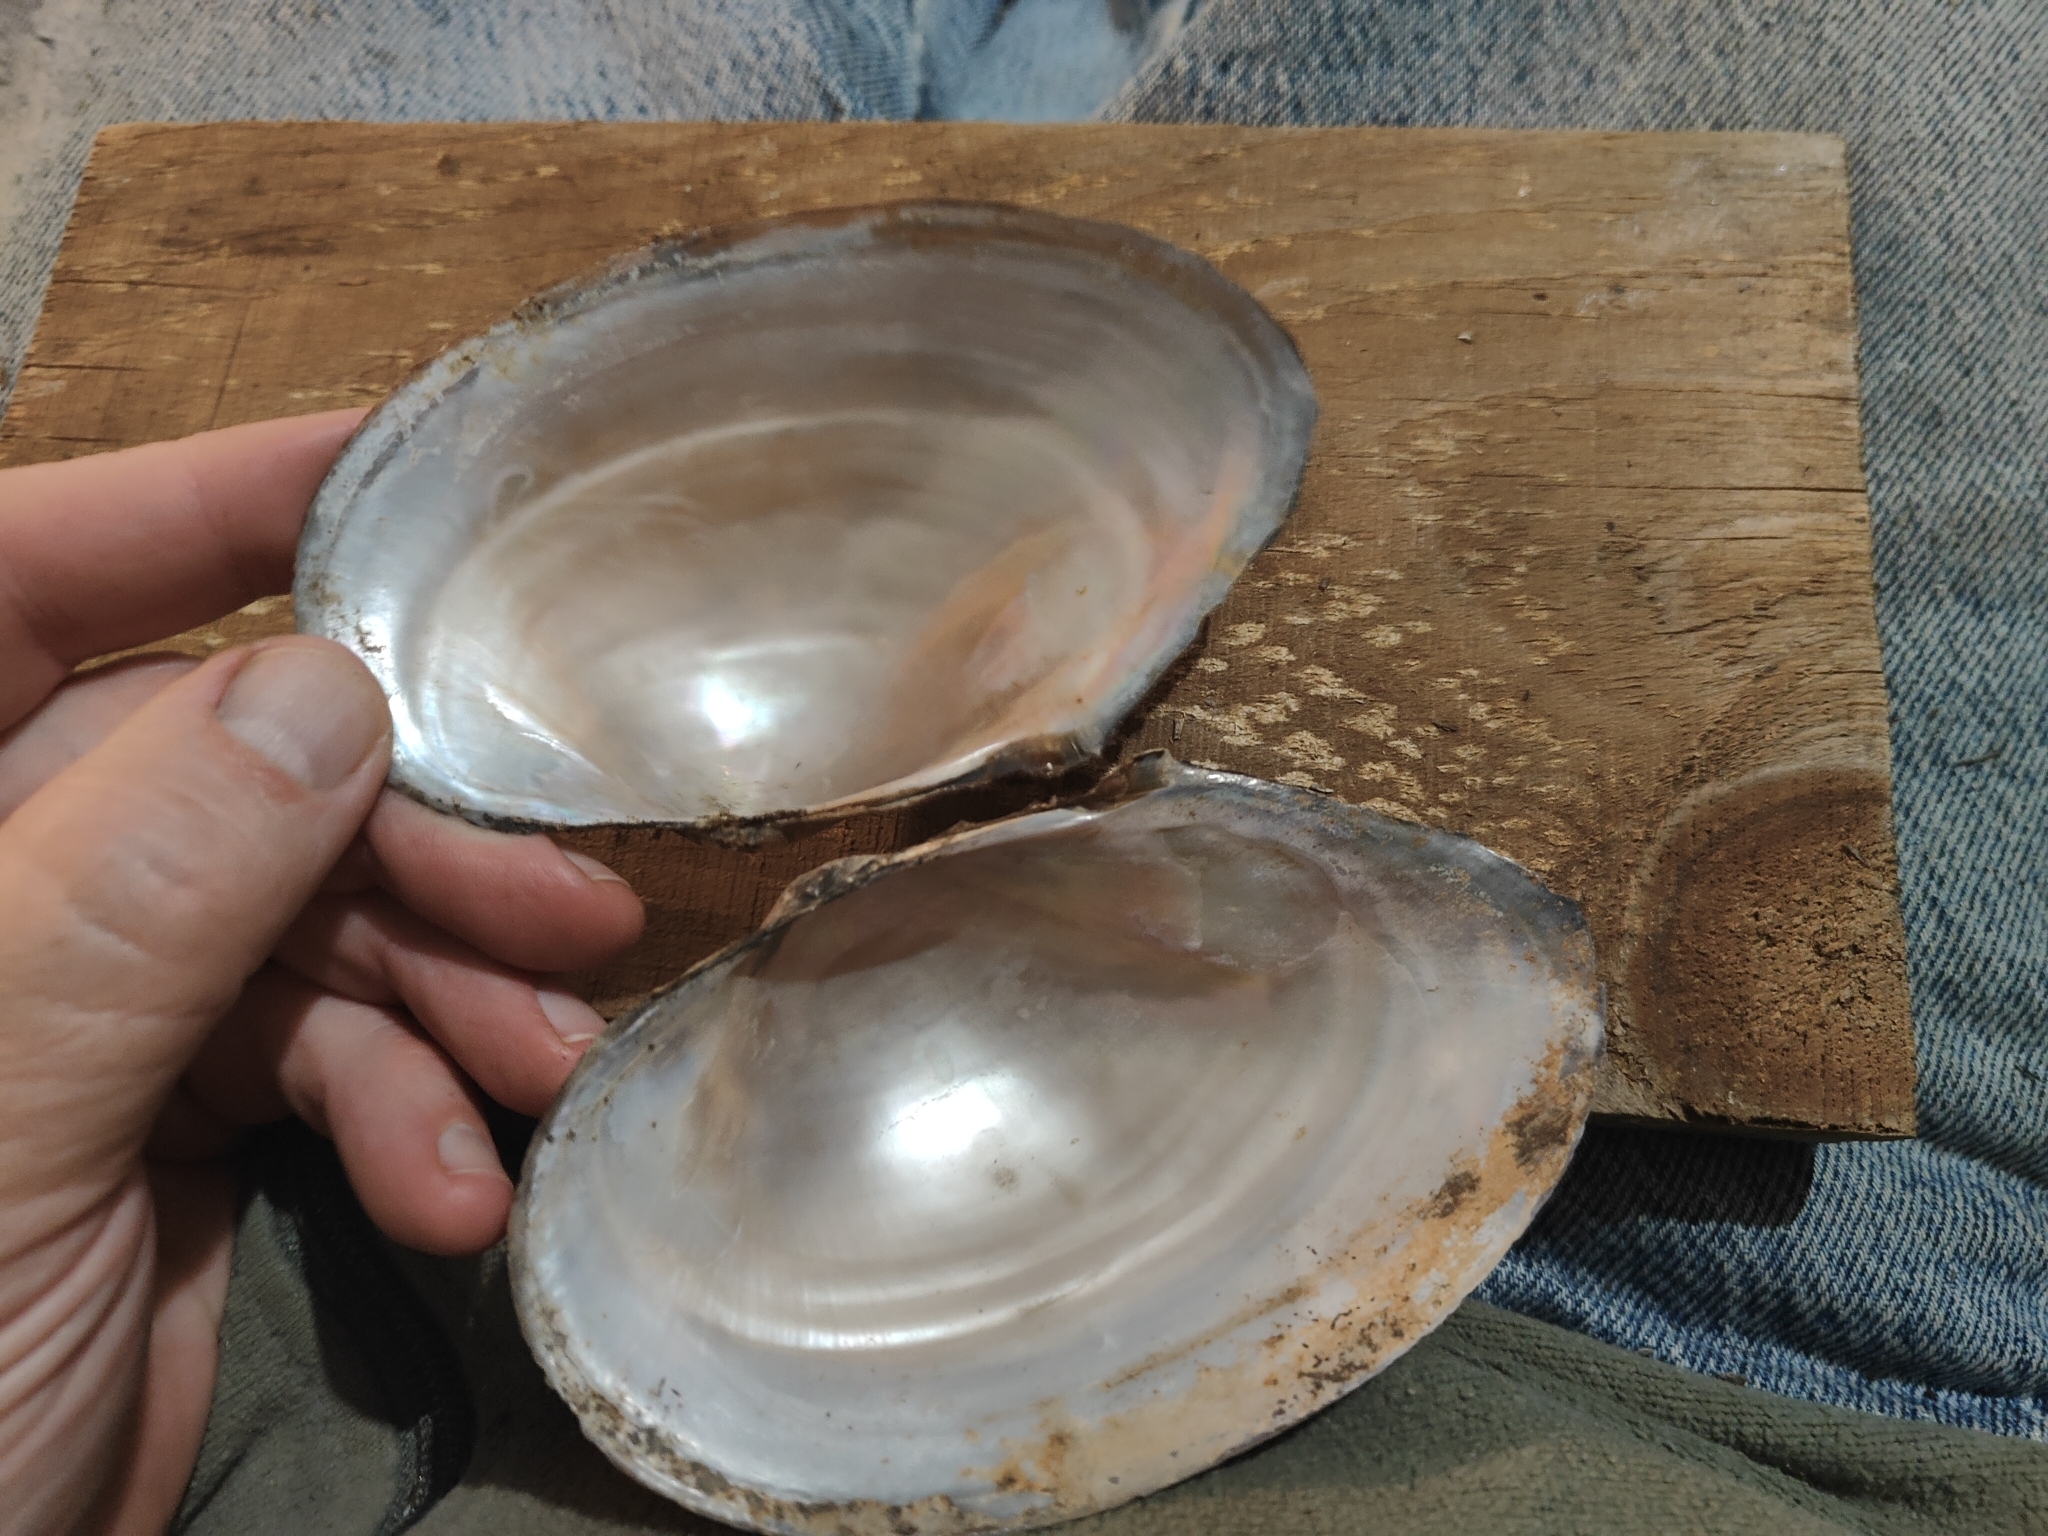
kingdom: Animalia
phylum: Mollusca
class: Bivalvia
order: Unionida
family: Unionidae
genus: Pyganodon
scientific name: Pyganodon grandis
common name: Giant floater
